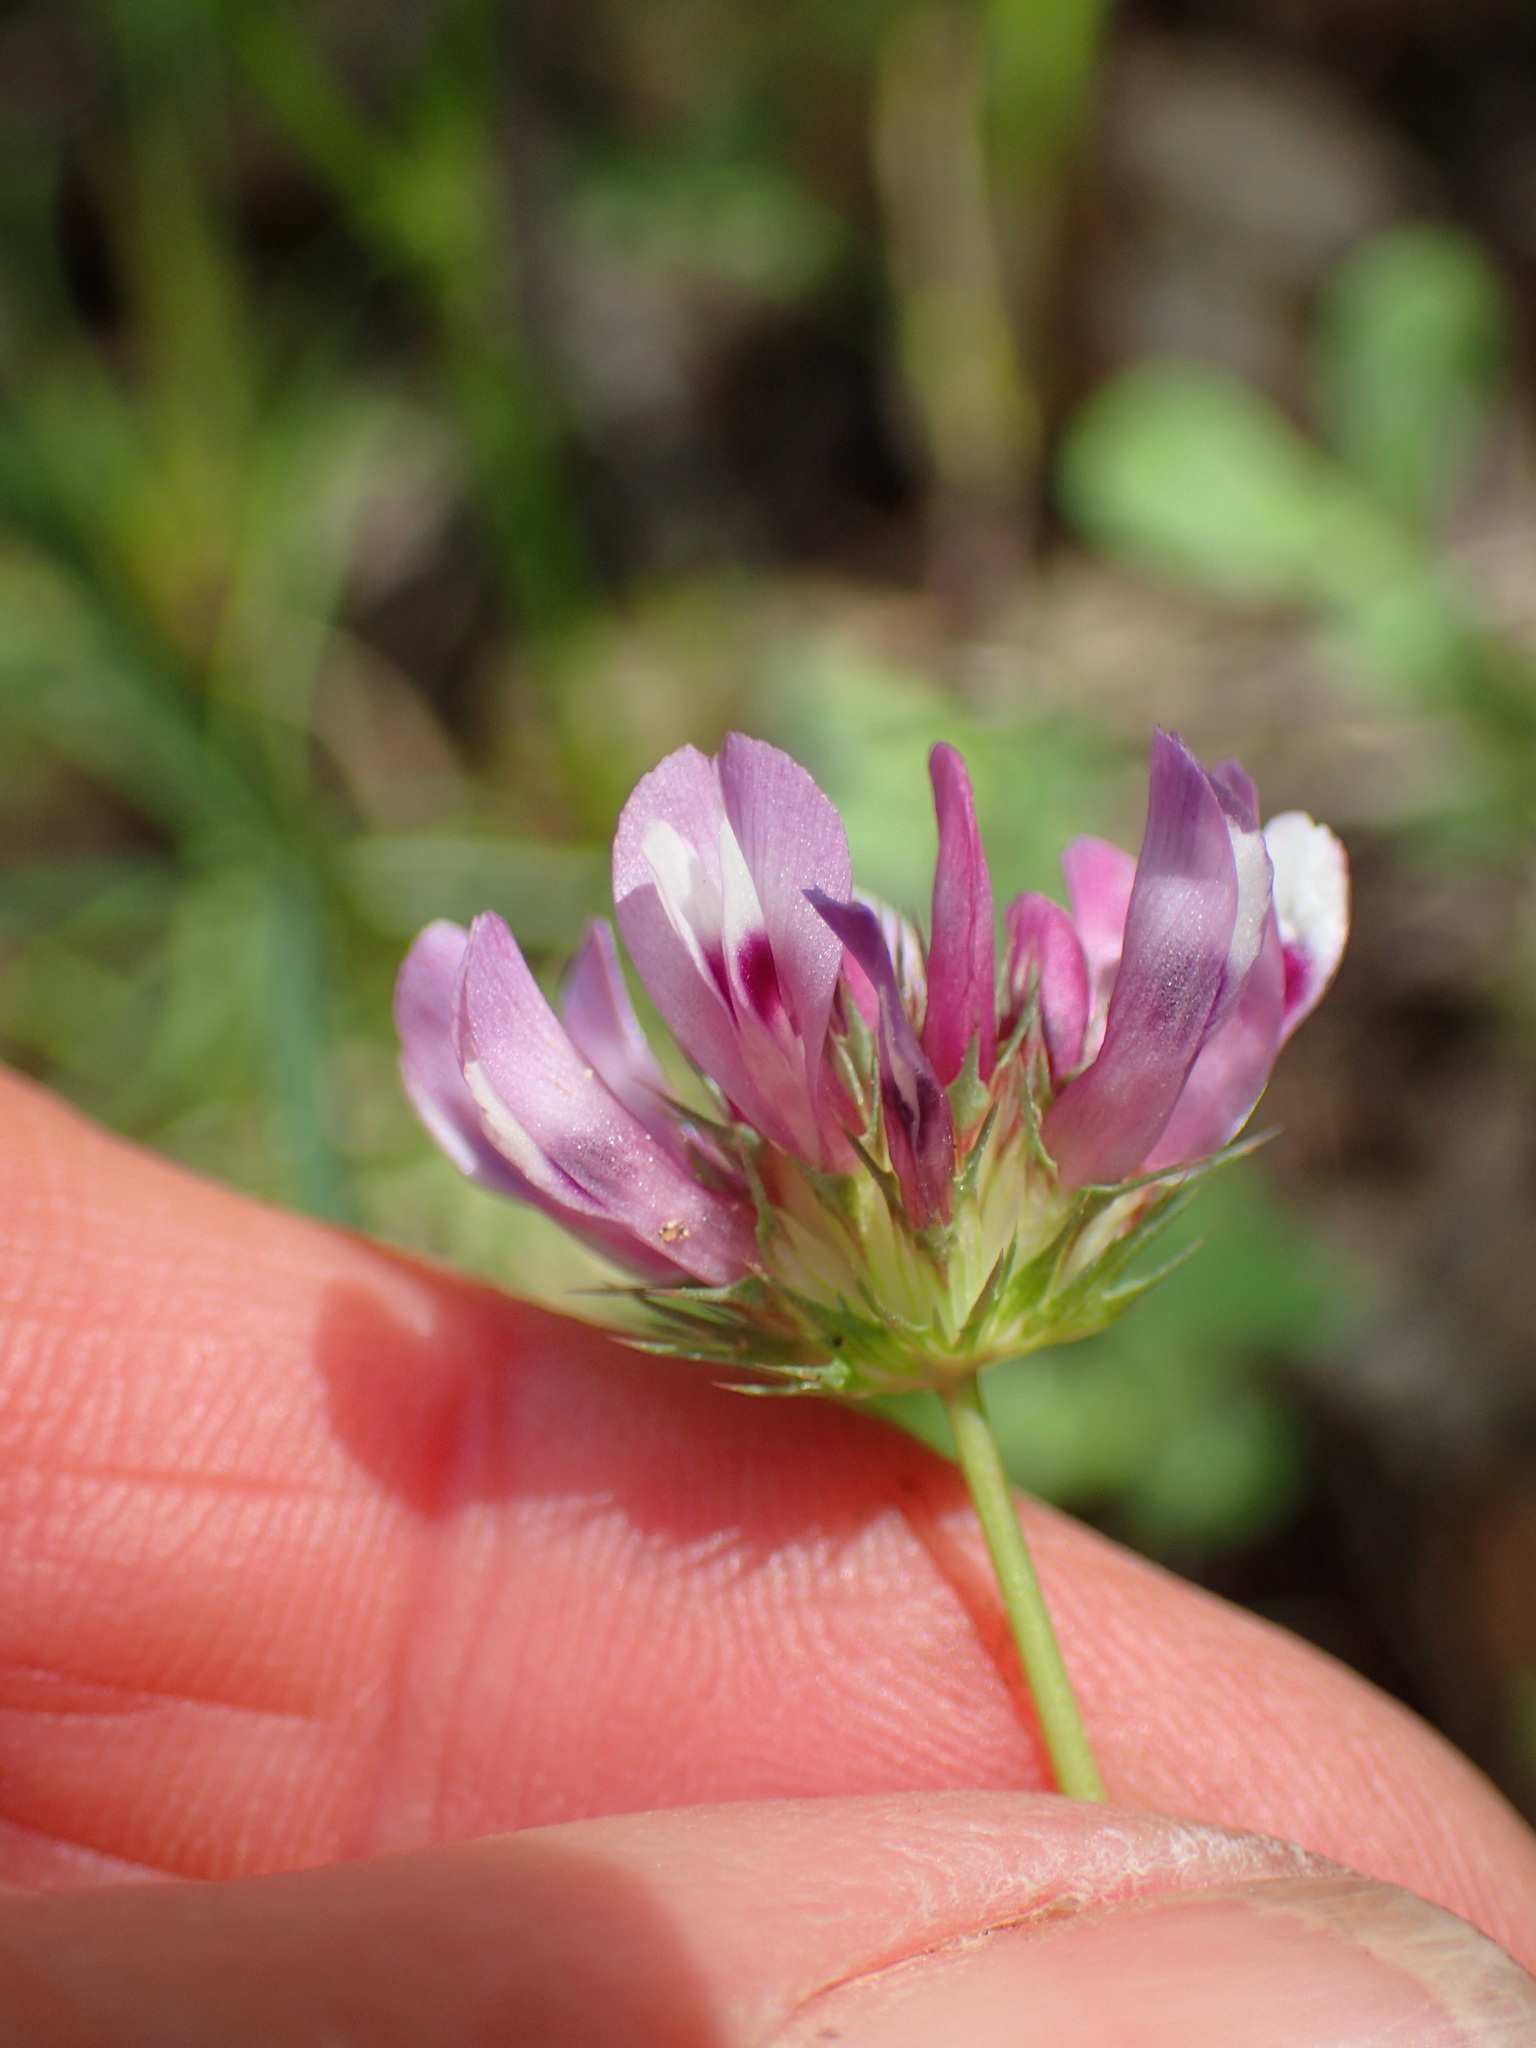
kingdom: Plantae
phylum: Tracheophyta
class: Magnoliopsida
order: Fabales
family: Fabaceae
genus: Trifolium
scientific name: Trifolium willdenovii
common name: Tomcat clover
